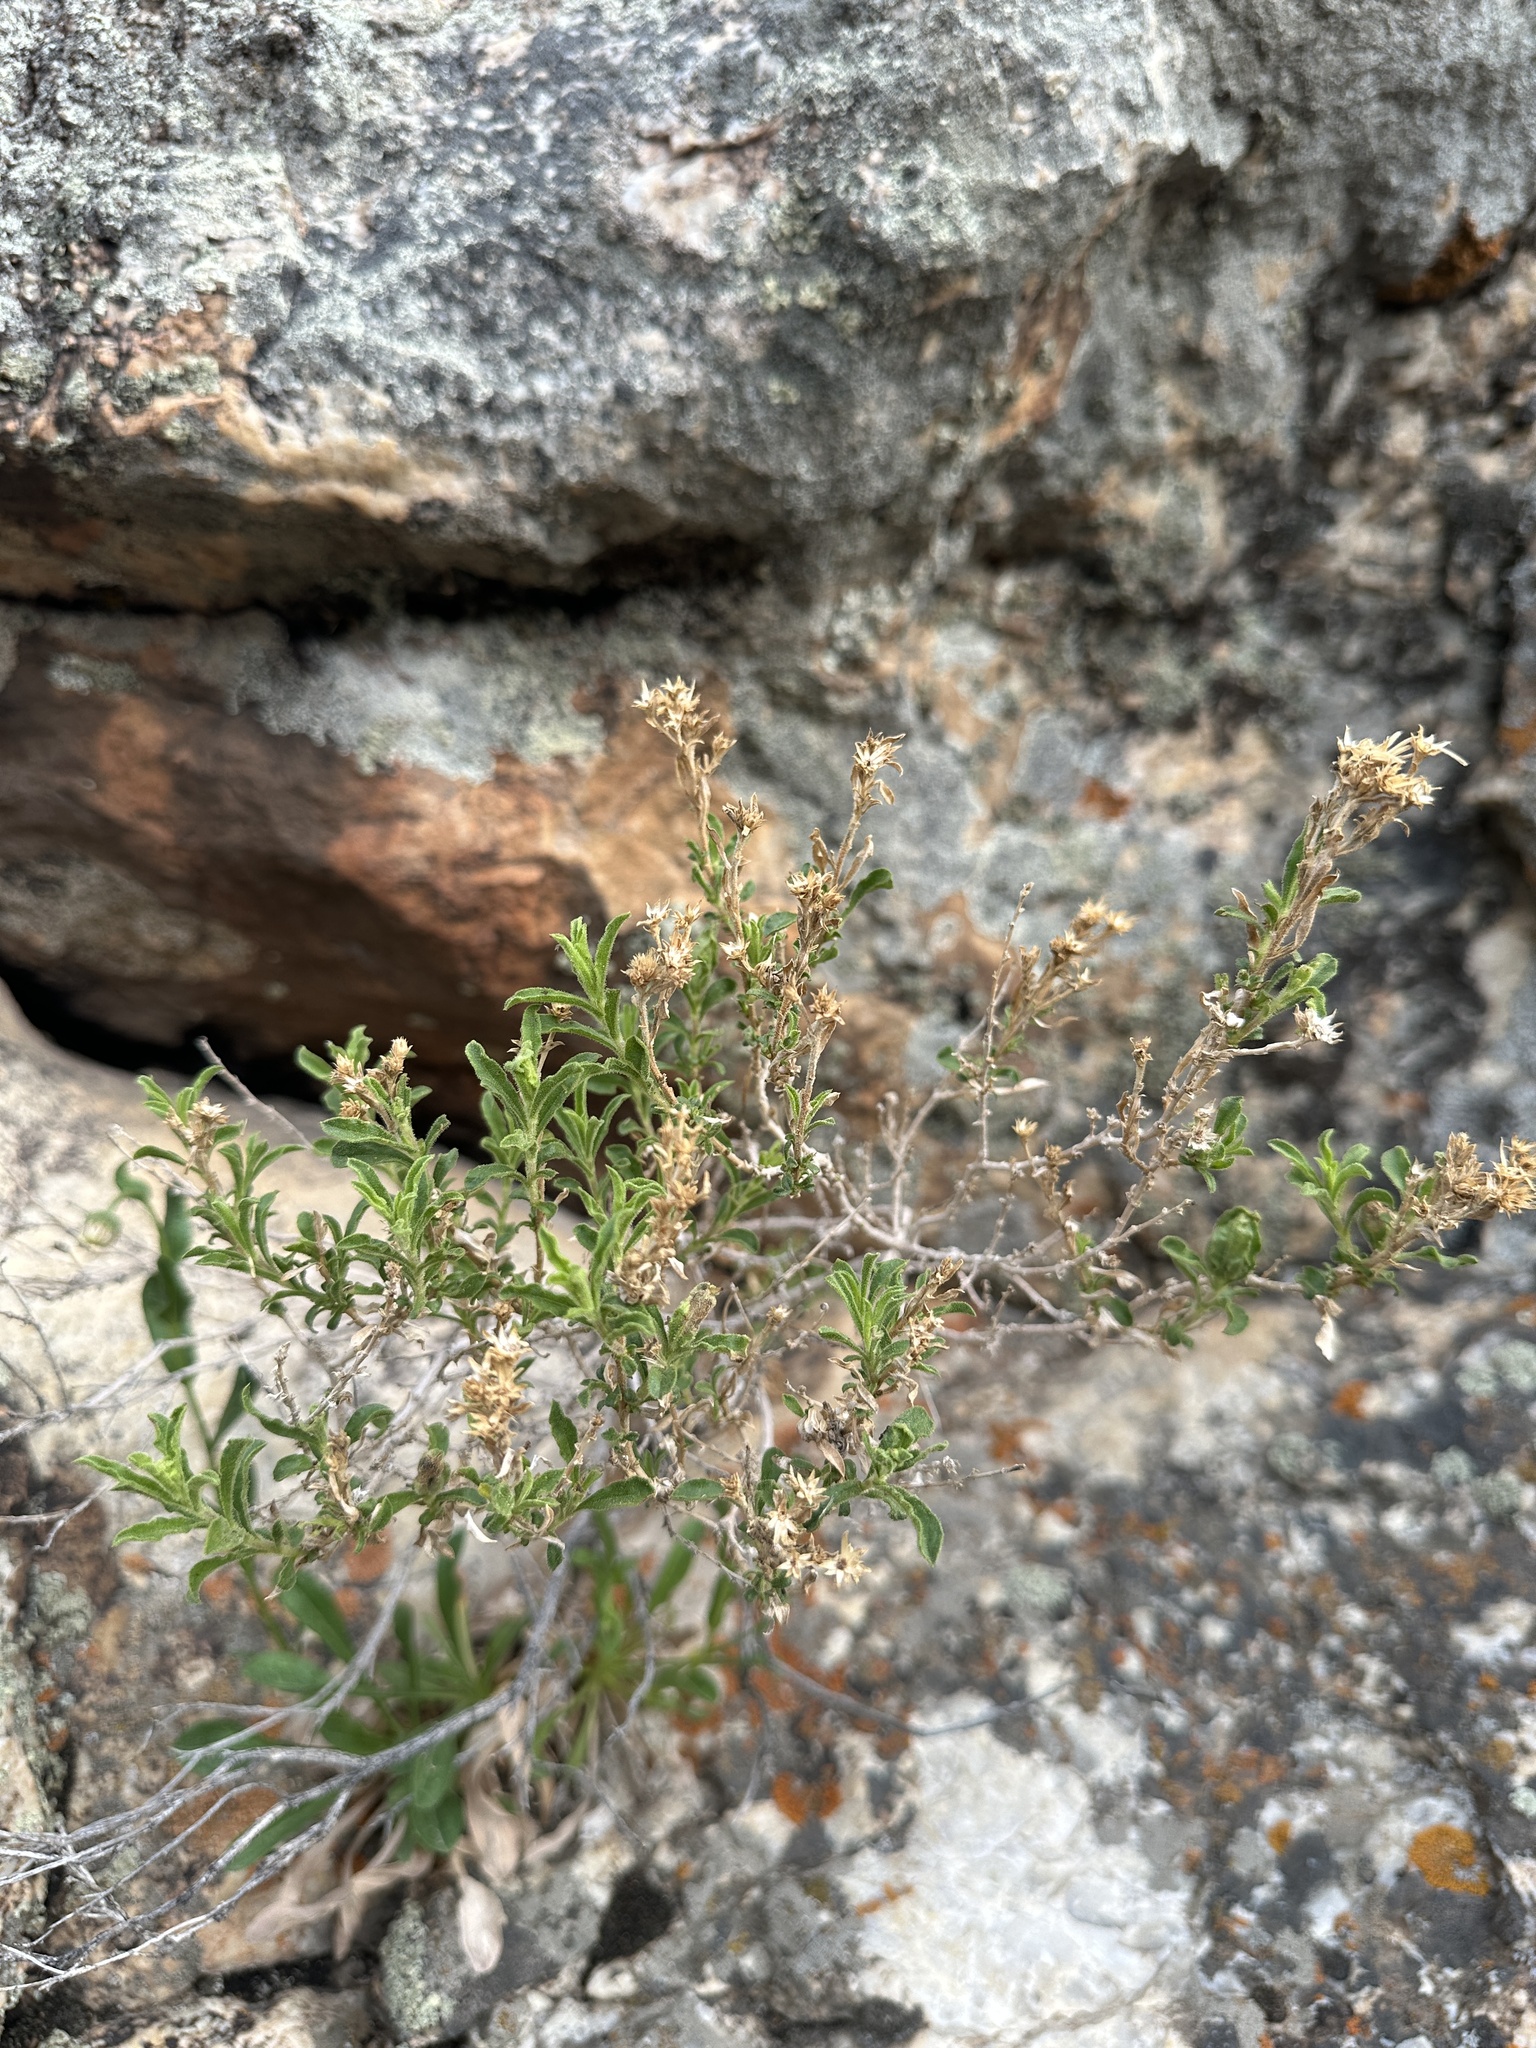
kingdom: Plantae
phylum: Tracheophyta
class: Magnoliopsida
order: Asterales
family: Asteraceae
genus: Ericameria
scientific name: Ericameria cervina
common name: Antelope goldenbush
